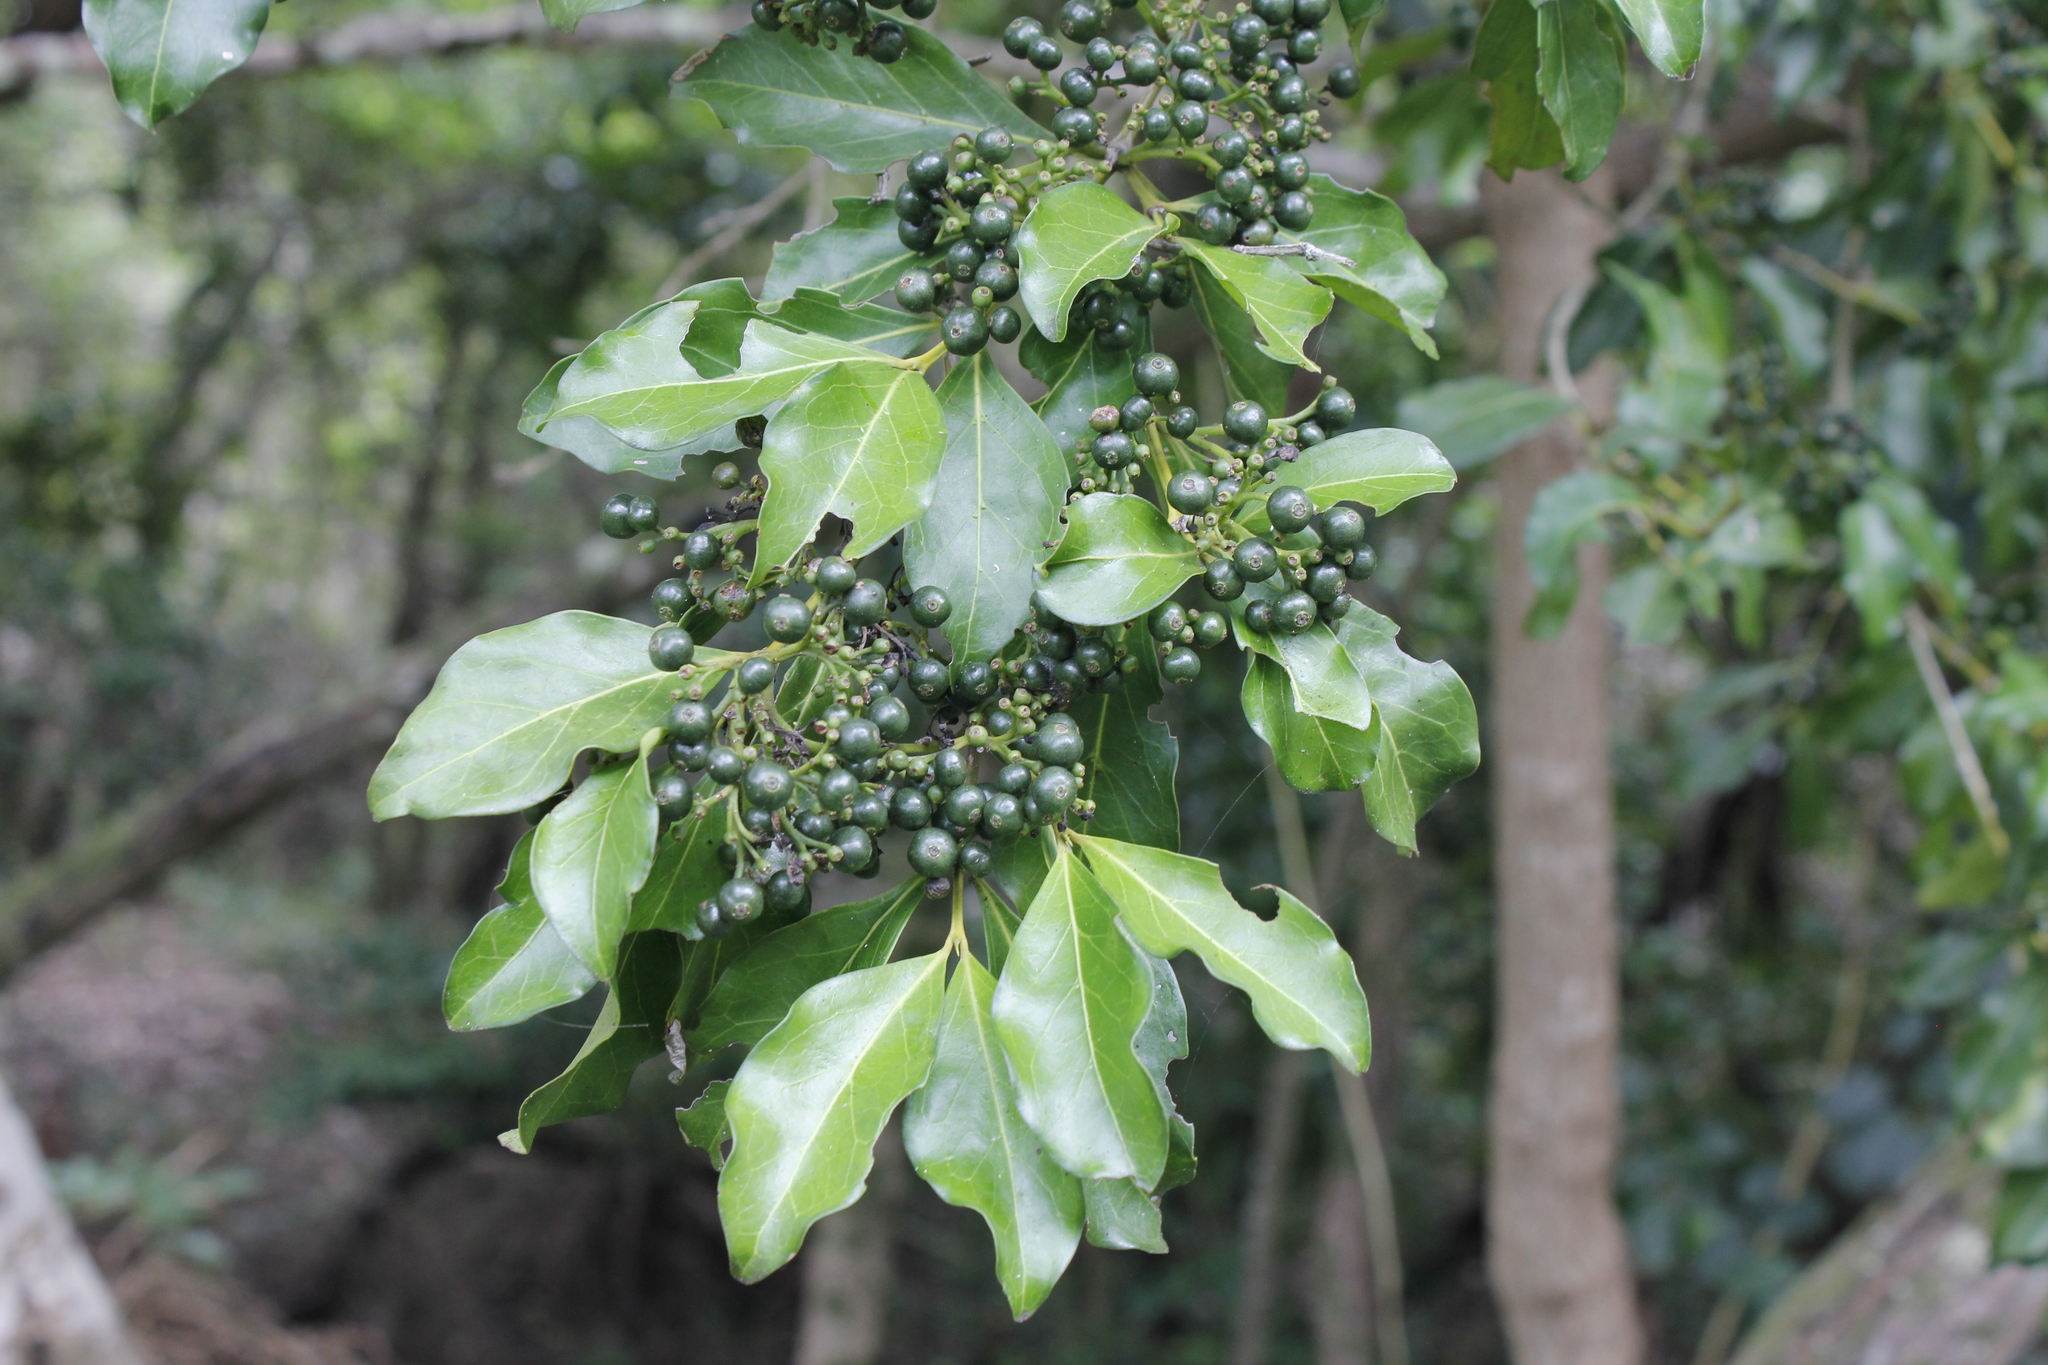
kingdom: Plantae
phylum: Tracheophyta
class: Magnoliopsida
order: Gentianales
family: Rubiaceae
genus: Psydrax
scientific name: Psydrax odoratus
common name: Alahe'e
